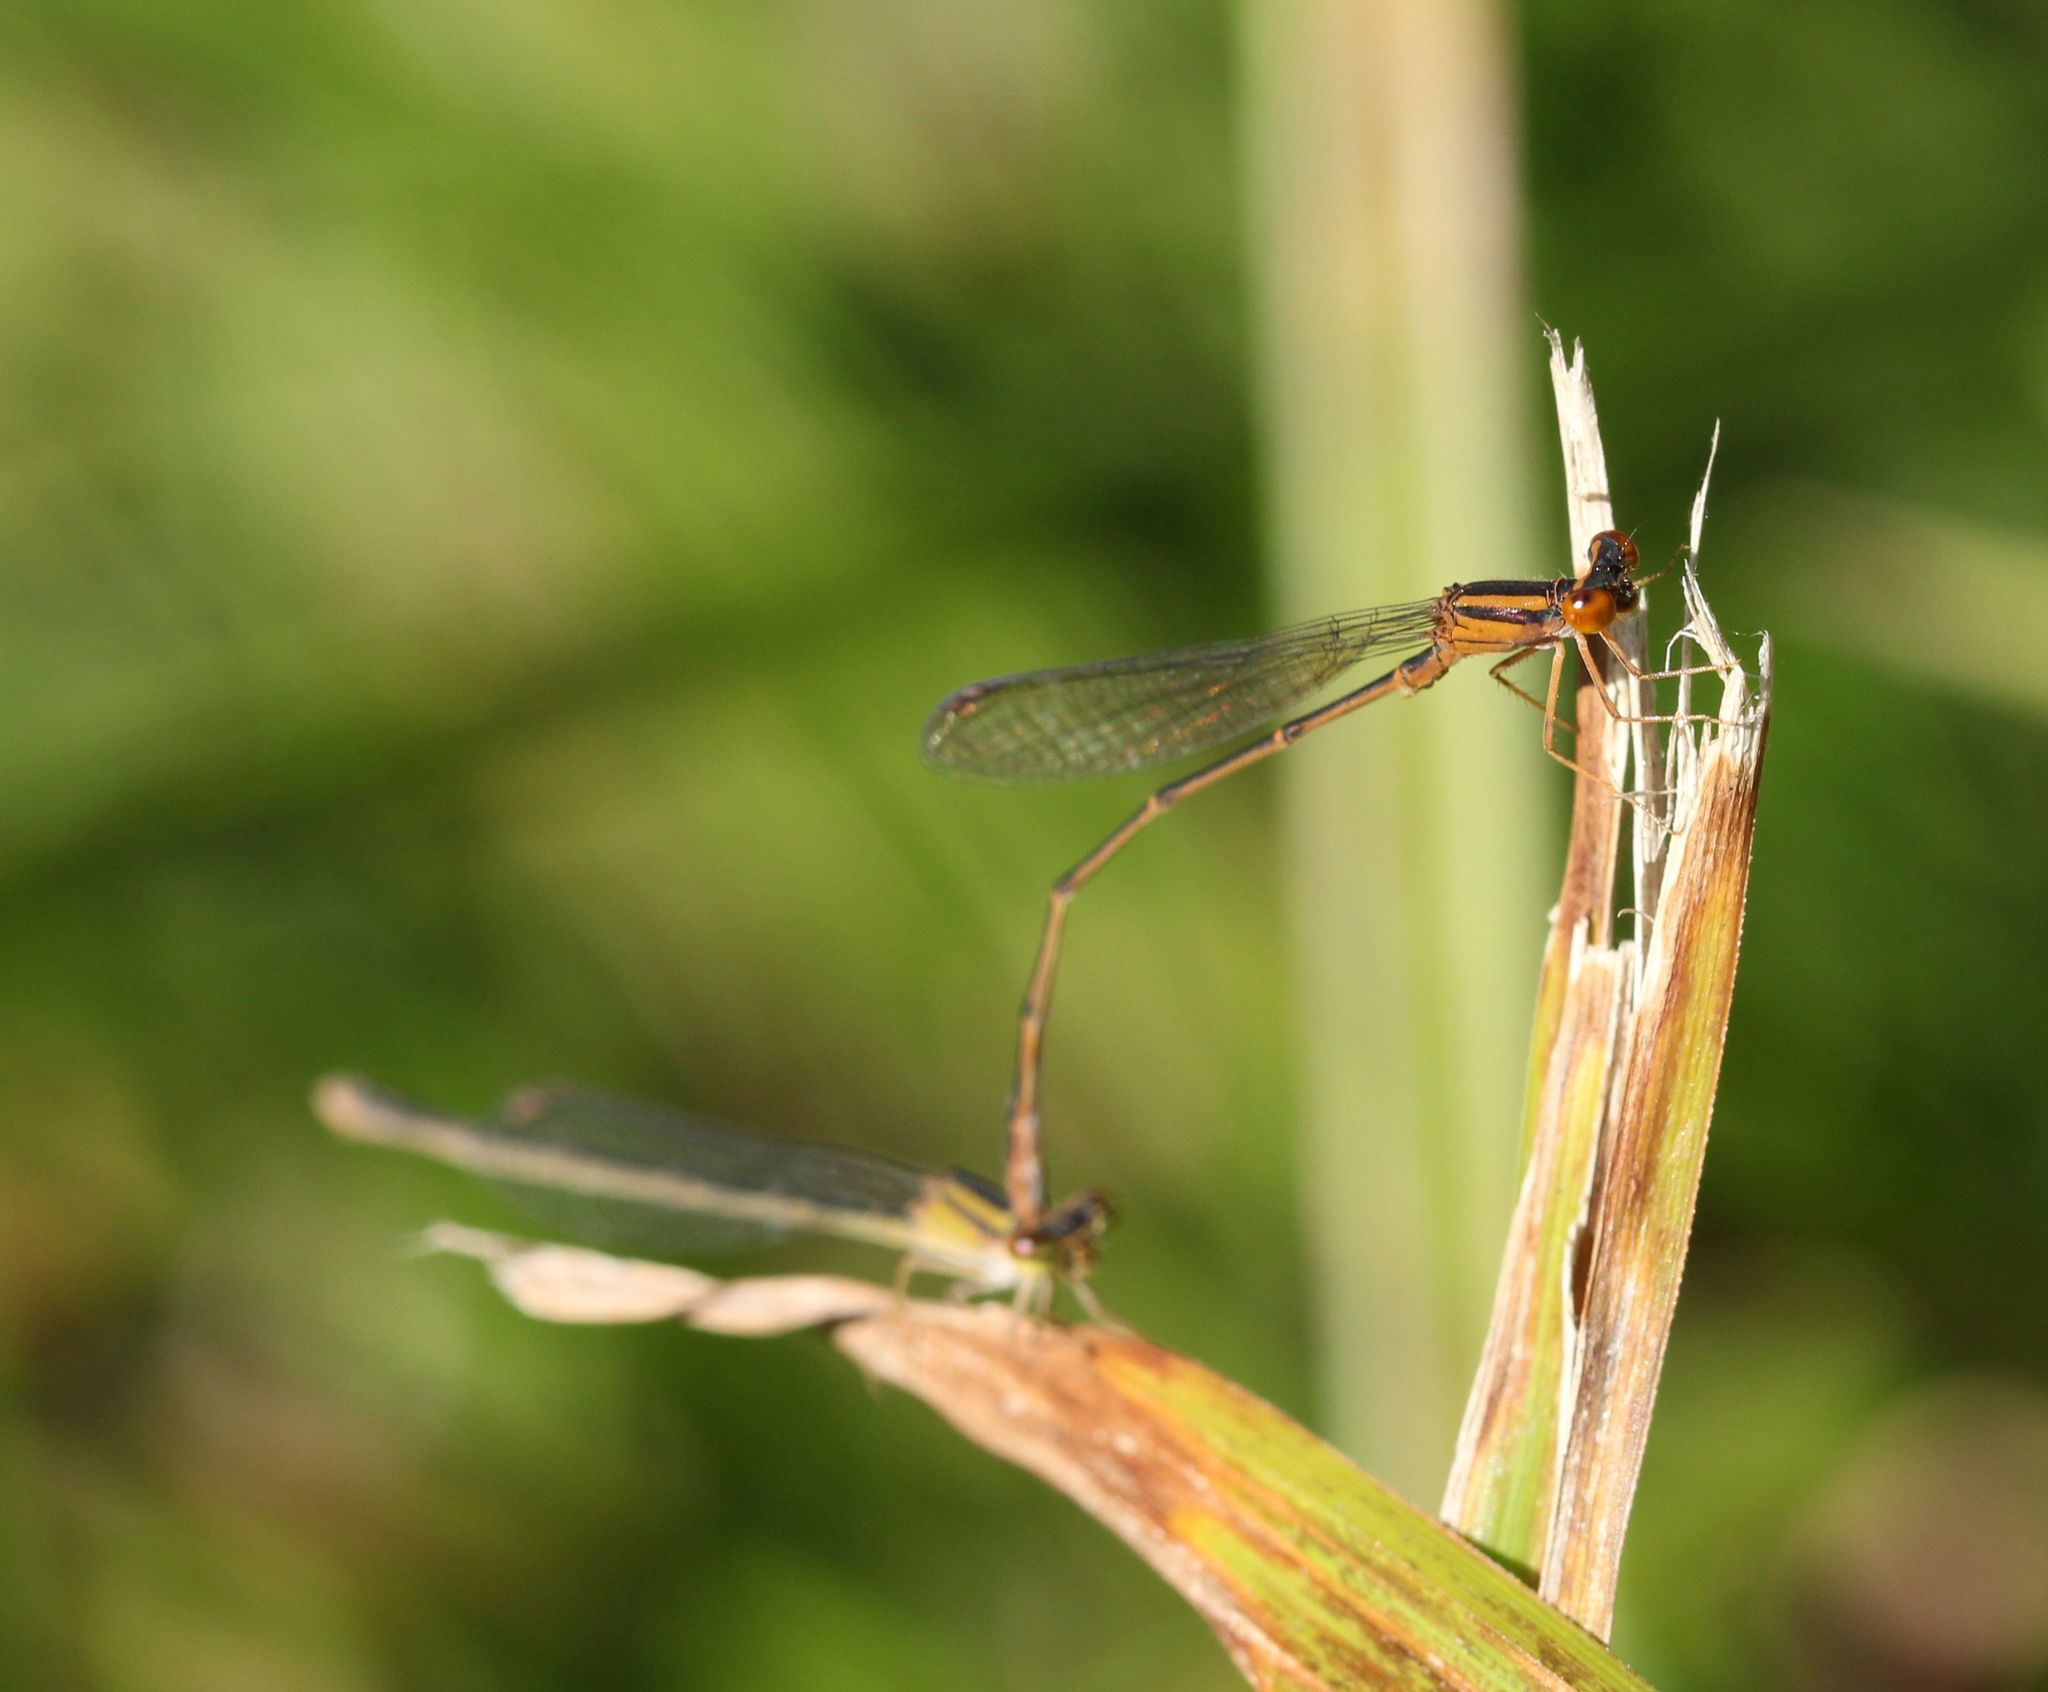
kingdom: Animalia
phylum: Arthropoda
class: Insecta
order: Odonata
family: Coenagrionidae
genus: Enallagma
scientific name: Enallagma signatum
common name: Orange bluet
